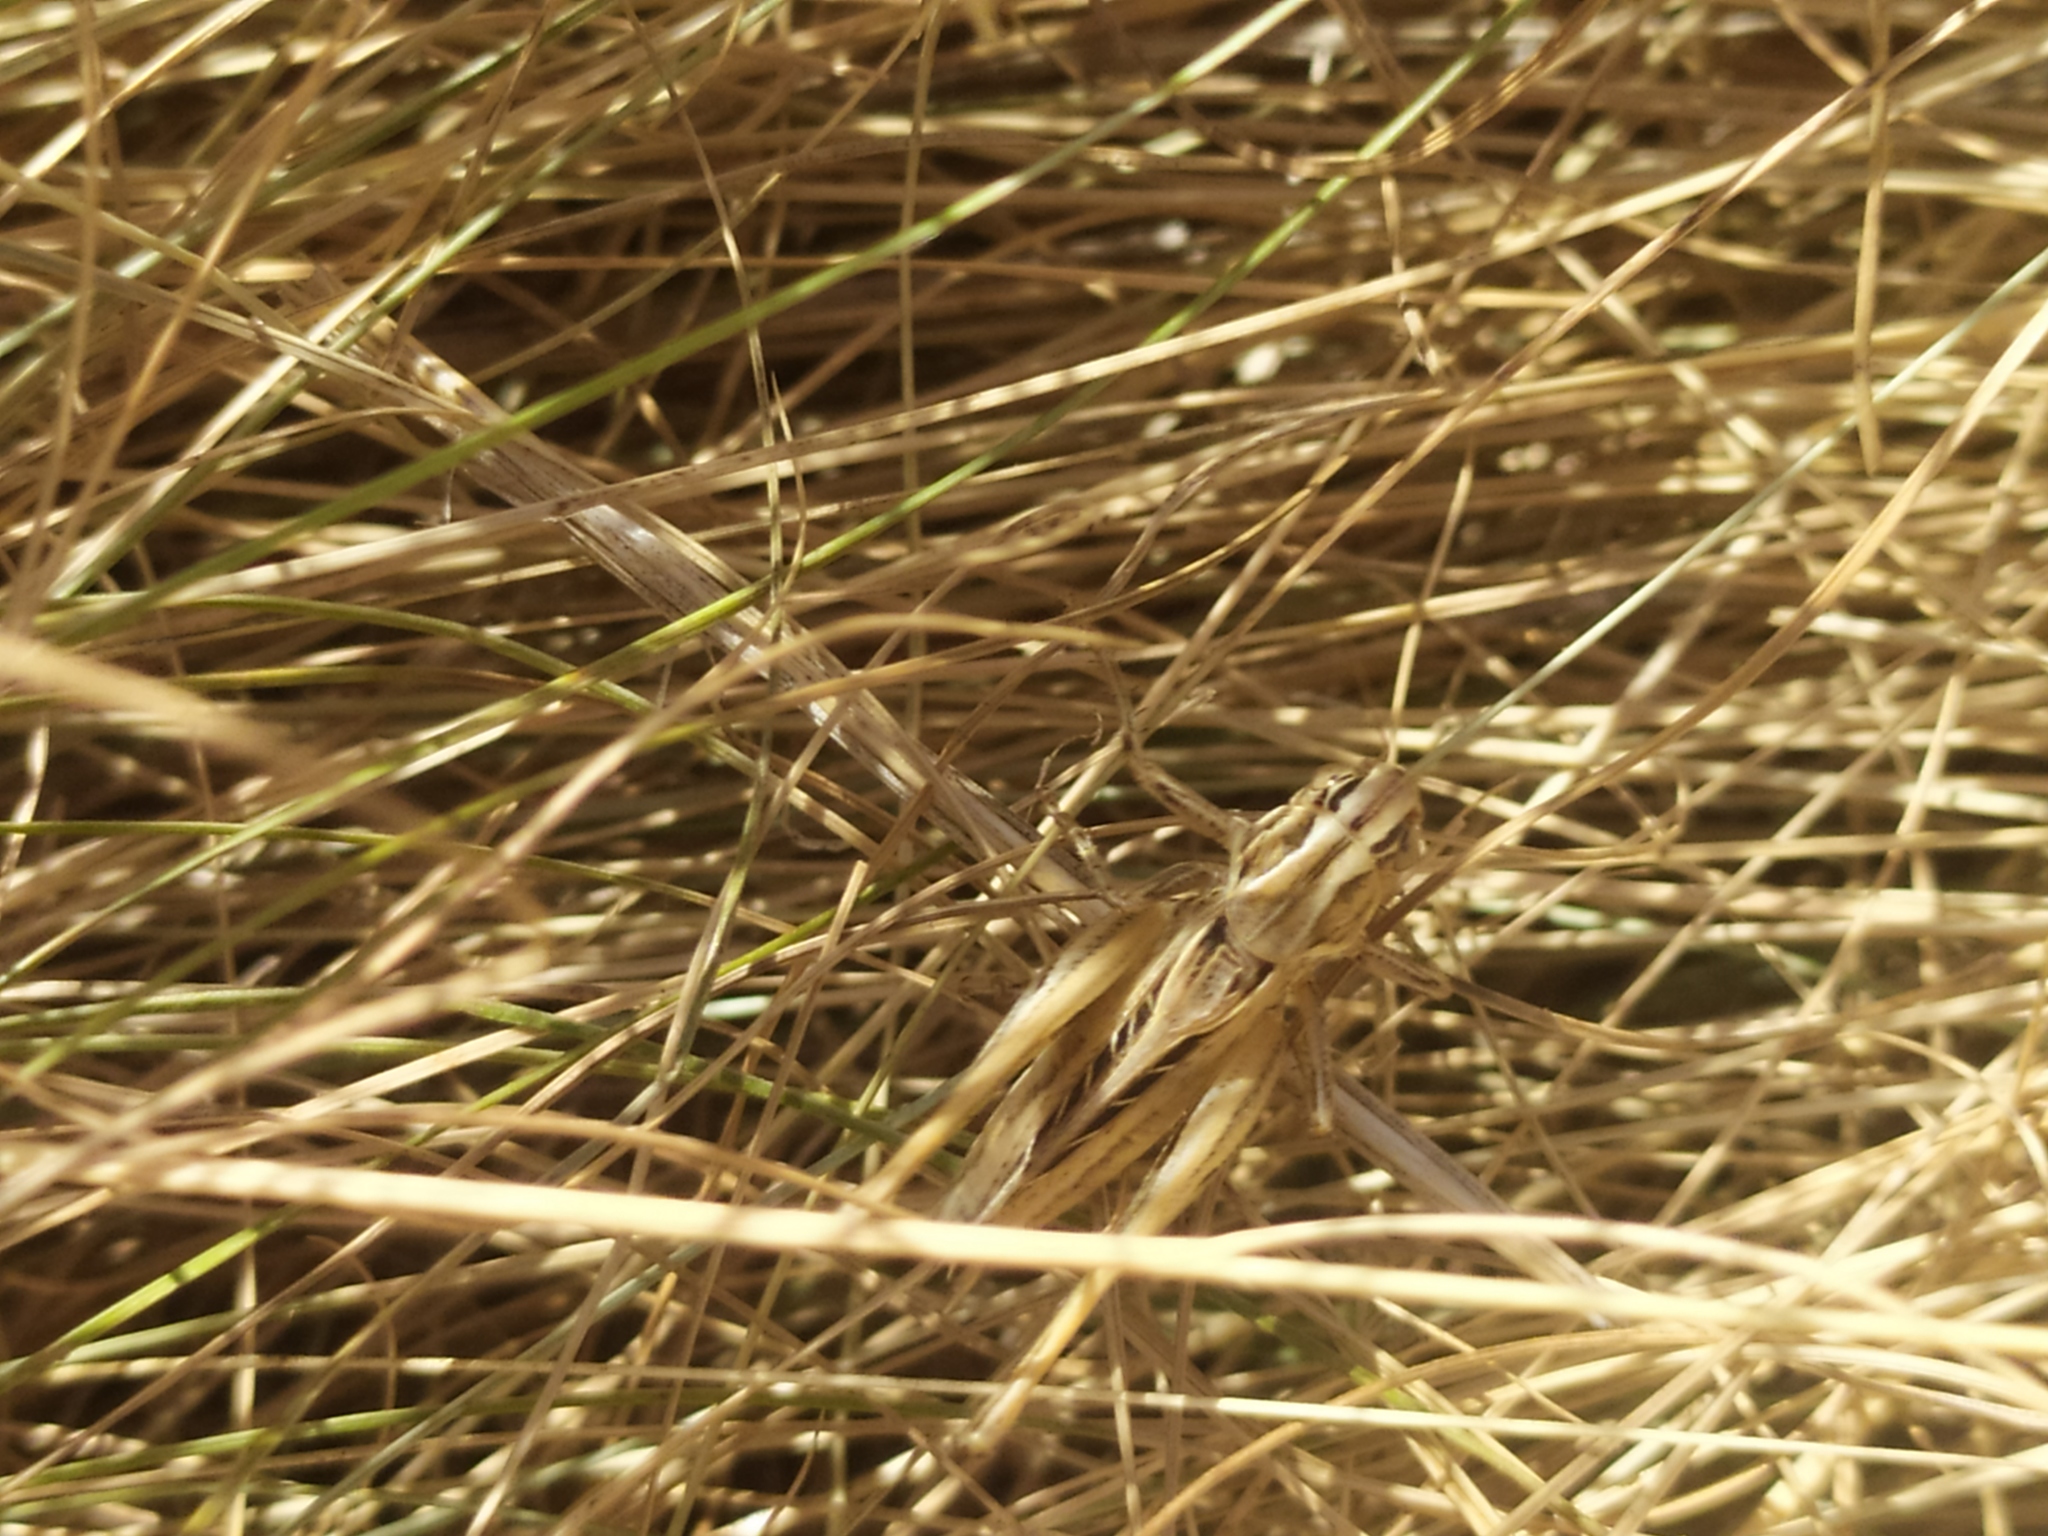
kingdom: Animalia
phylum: Arthropoda
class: Insecta
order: Orthoptera
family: Tettigoniidae
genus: Tessellana
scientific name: Tessellana tessellata
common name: Grasshopper
